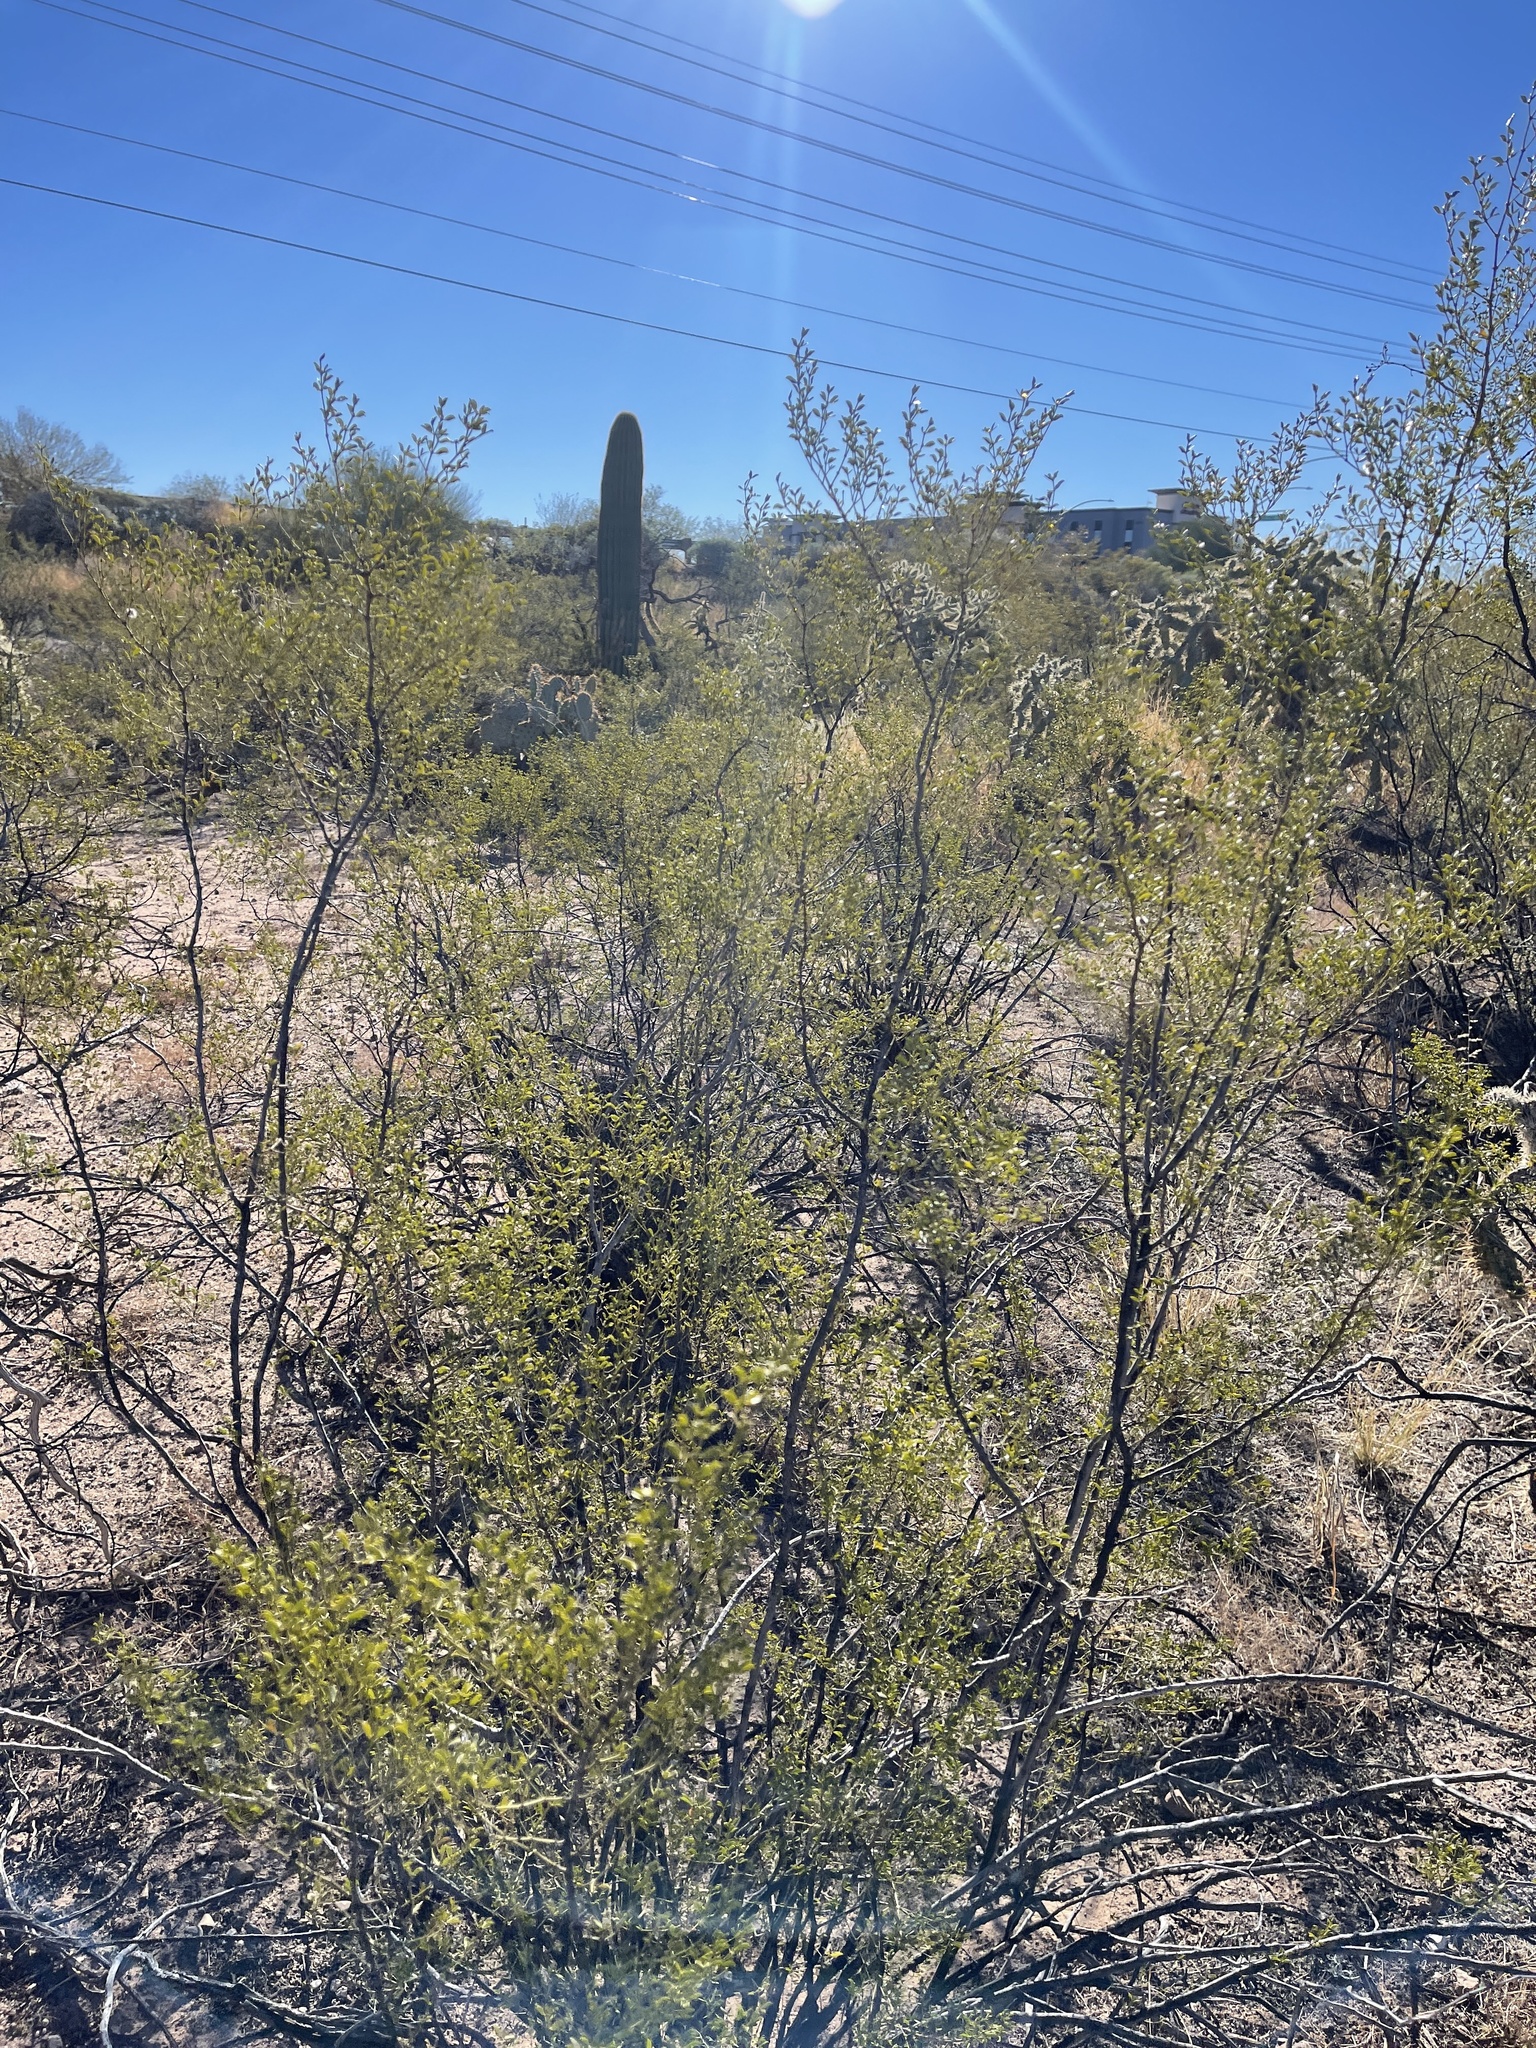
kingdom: Plantae
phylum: Tracheophyta
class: Magnoliopsida
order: Zygophyllales
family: Zygophyllaceae
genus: Larrea
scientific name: Larrea tridentata
